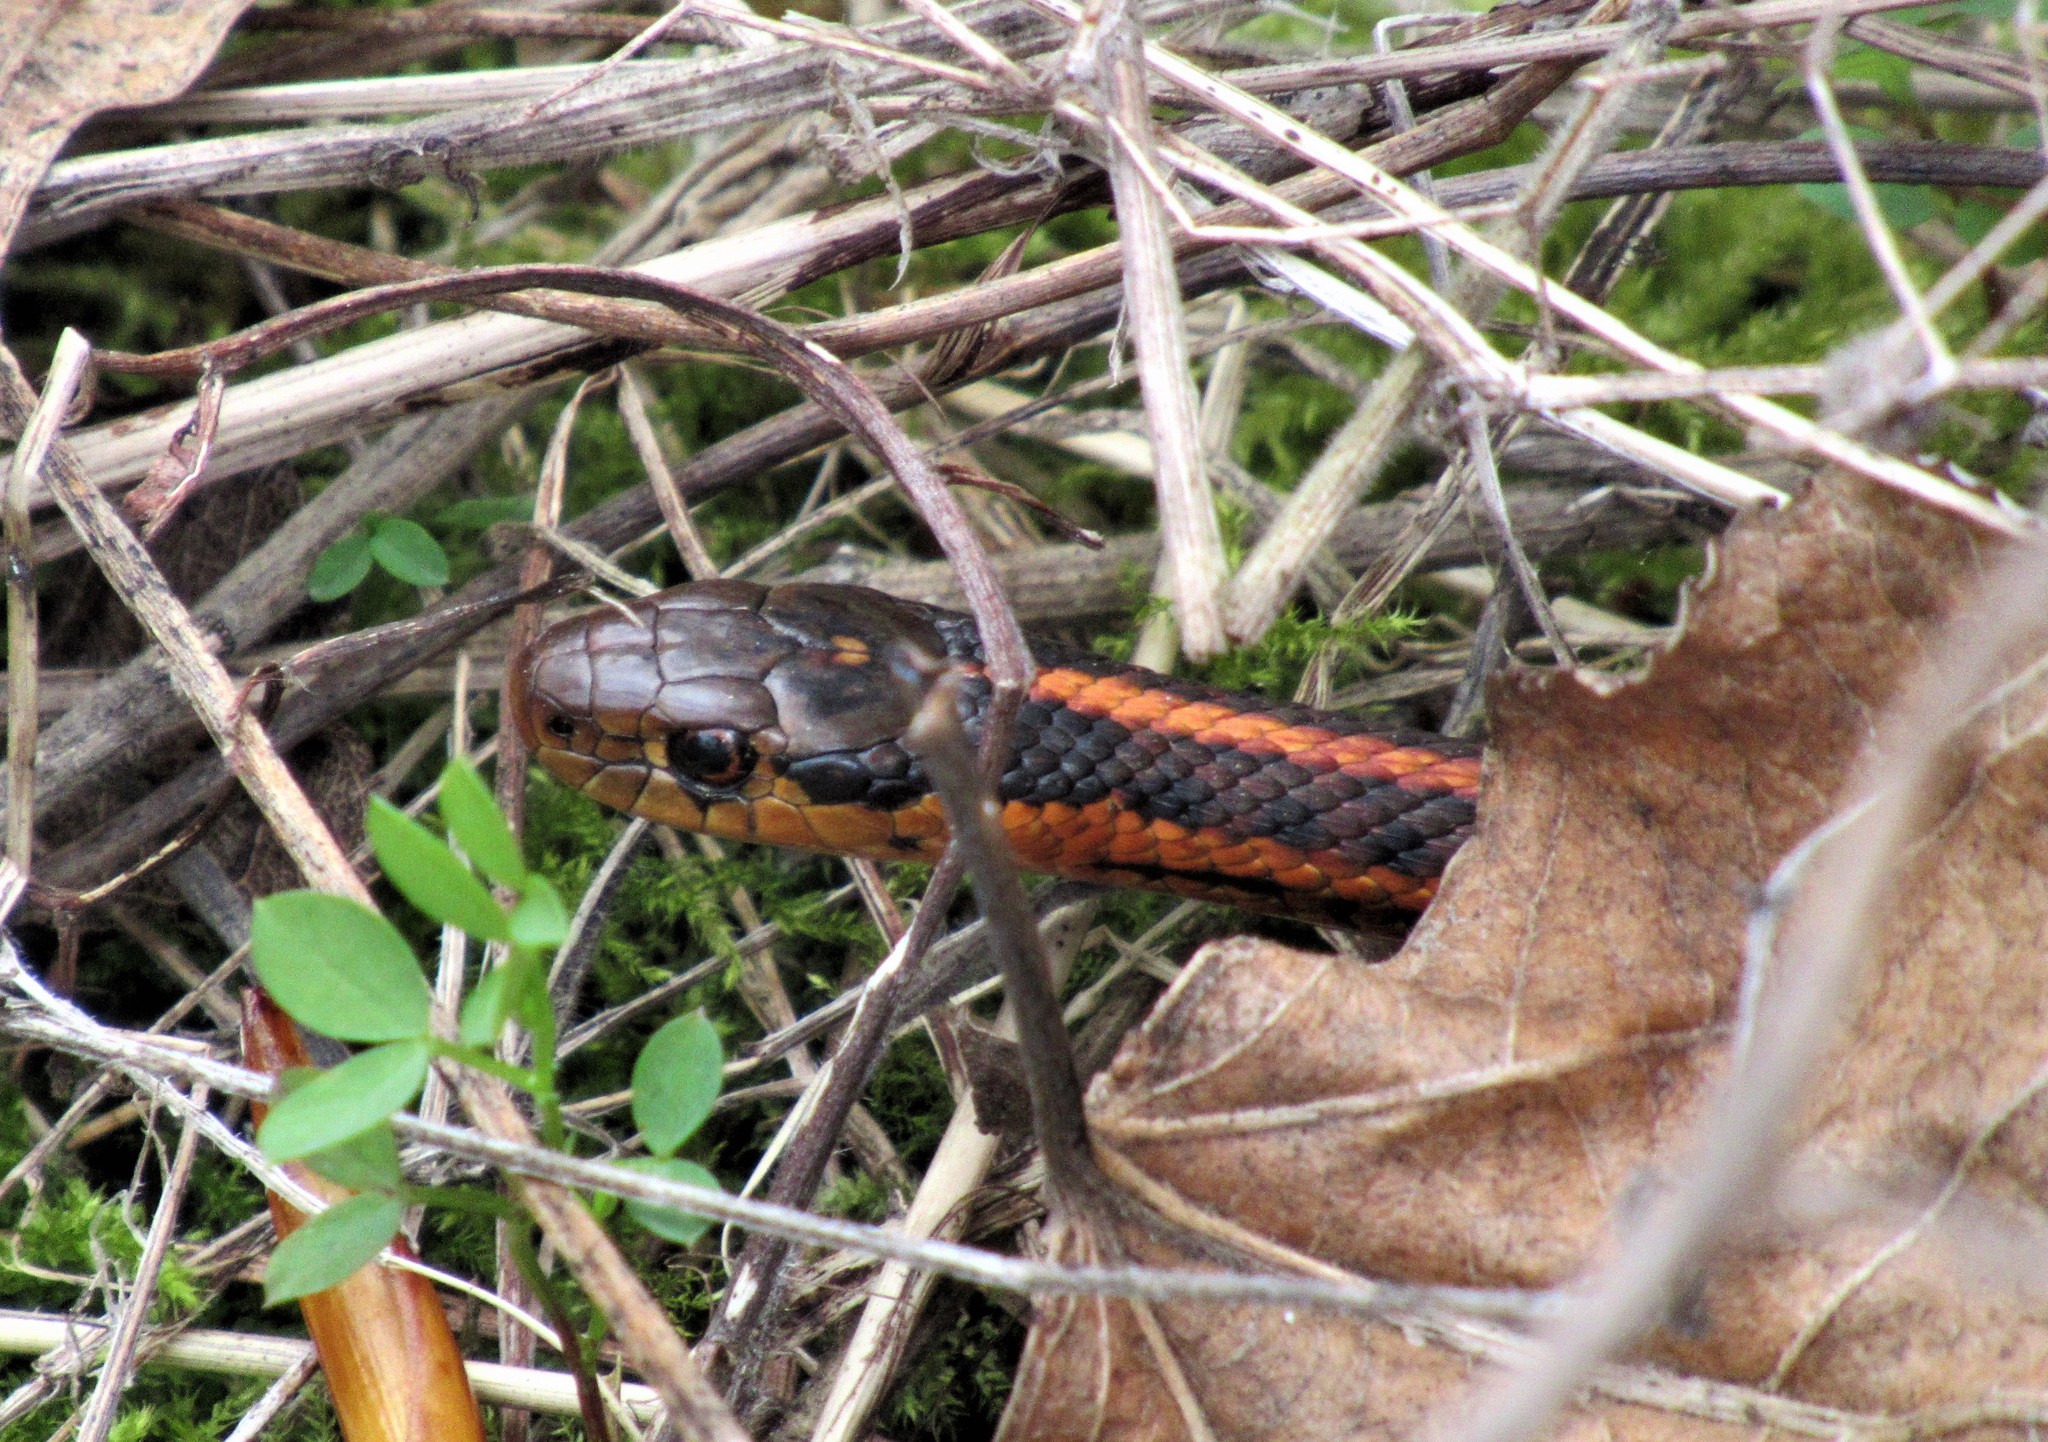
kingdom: Animalia
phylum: Chordata
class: Squamata
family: Colubridae
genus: Thamnophis
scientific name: Thamnophis ordinoides
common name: Northwestern garter snake
